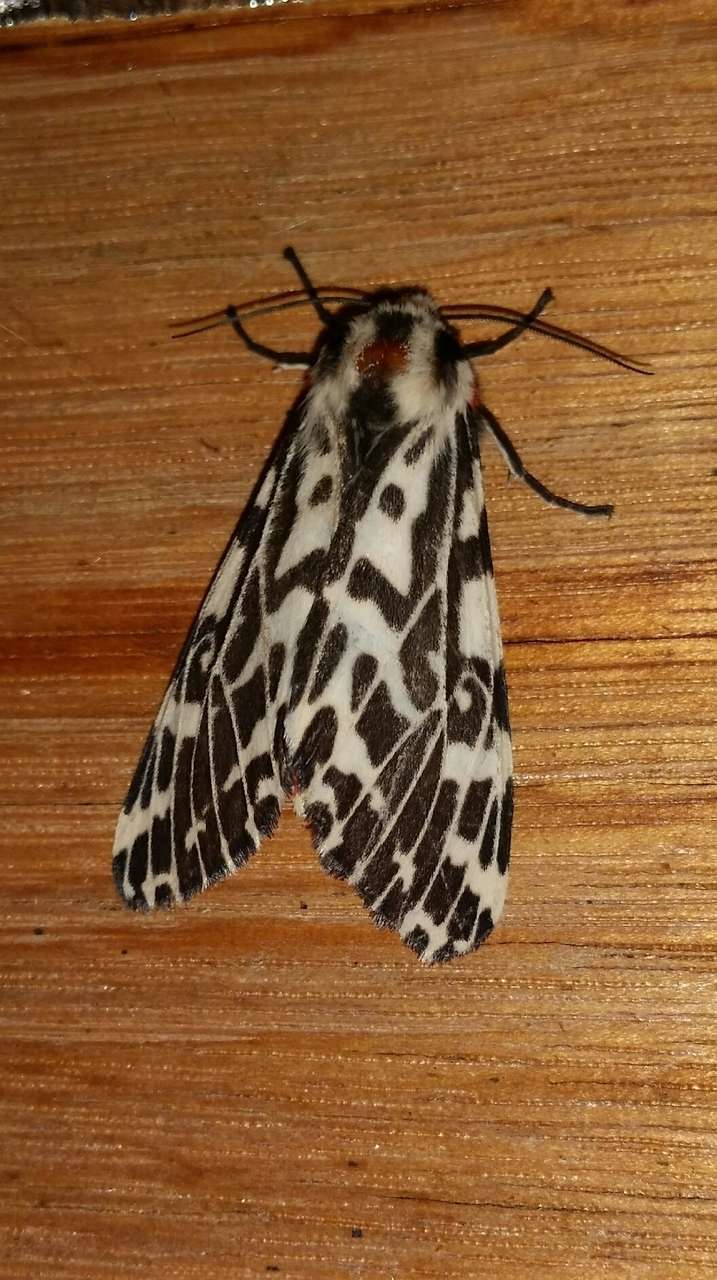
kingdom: Animalia
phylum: Arthropoda
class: Insecta
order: Lepidoptera
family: Erebidae
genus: Ardices
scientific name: Ardices glatignyi
